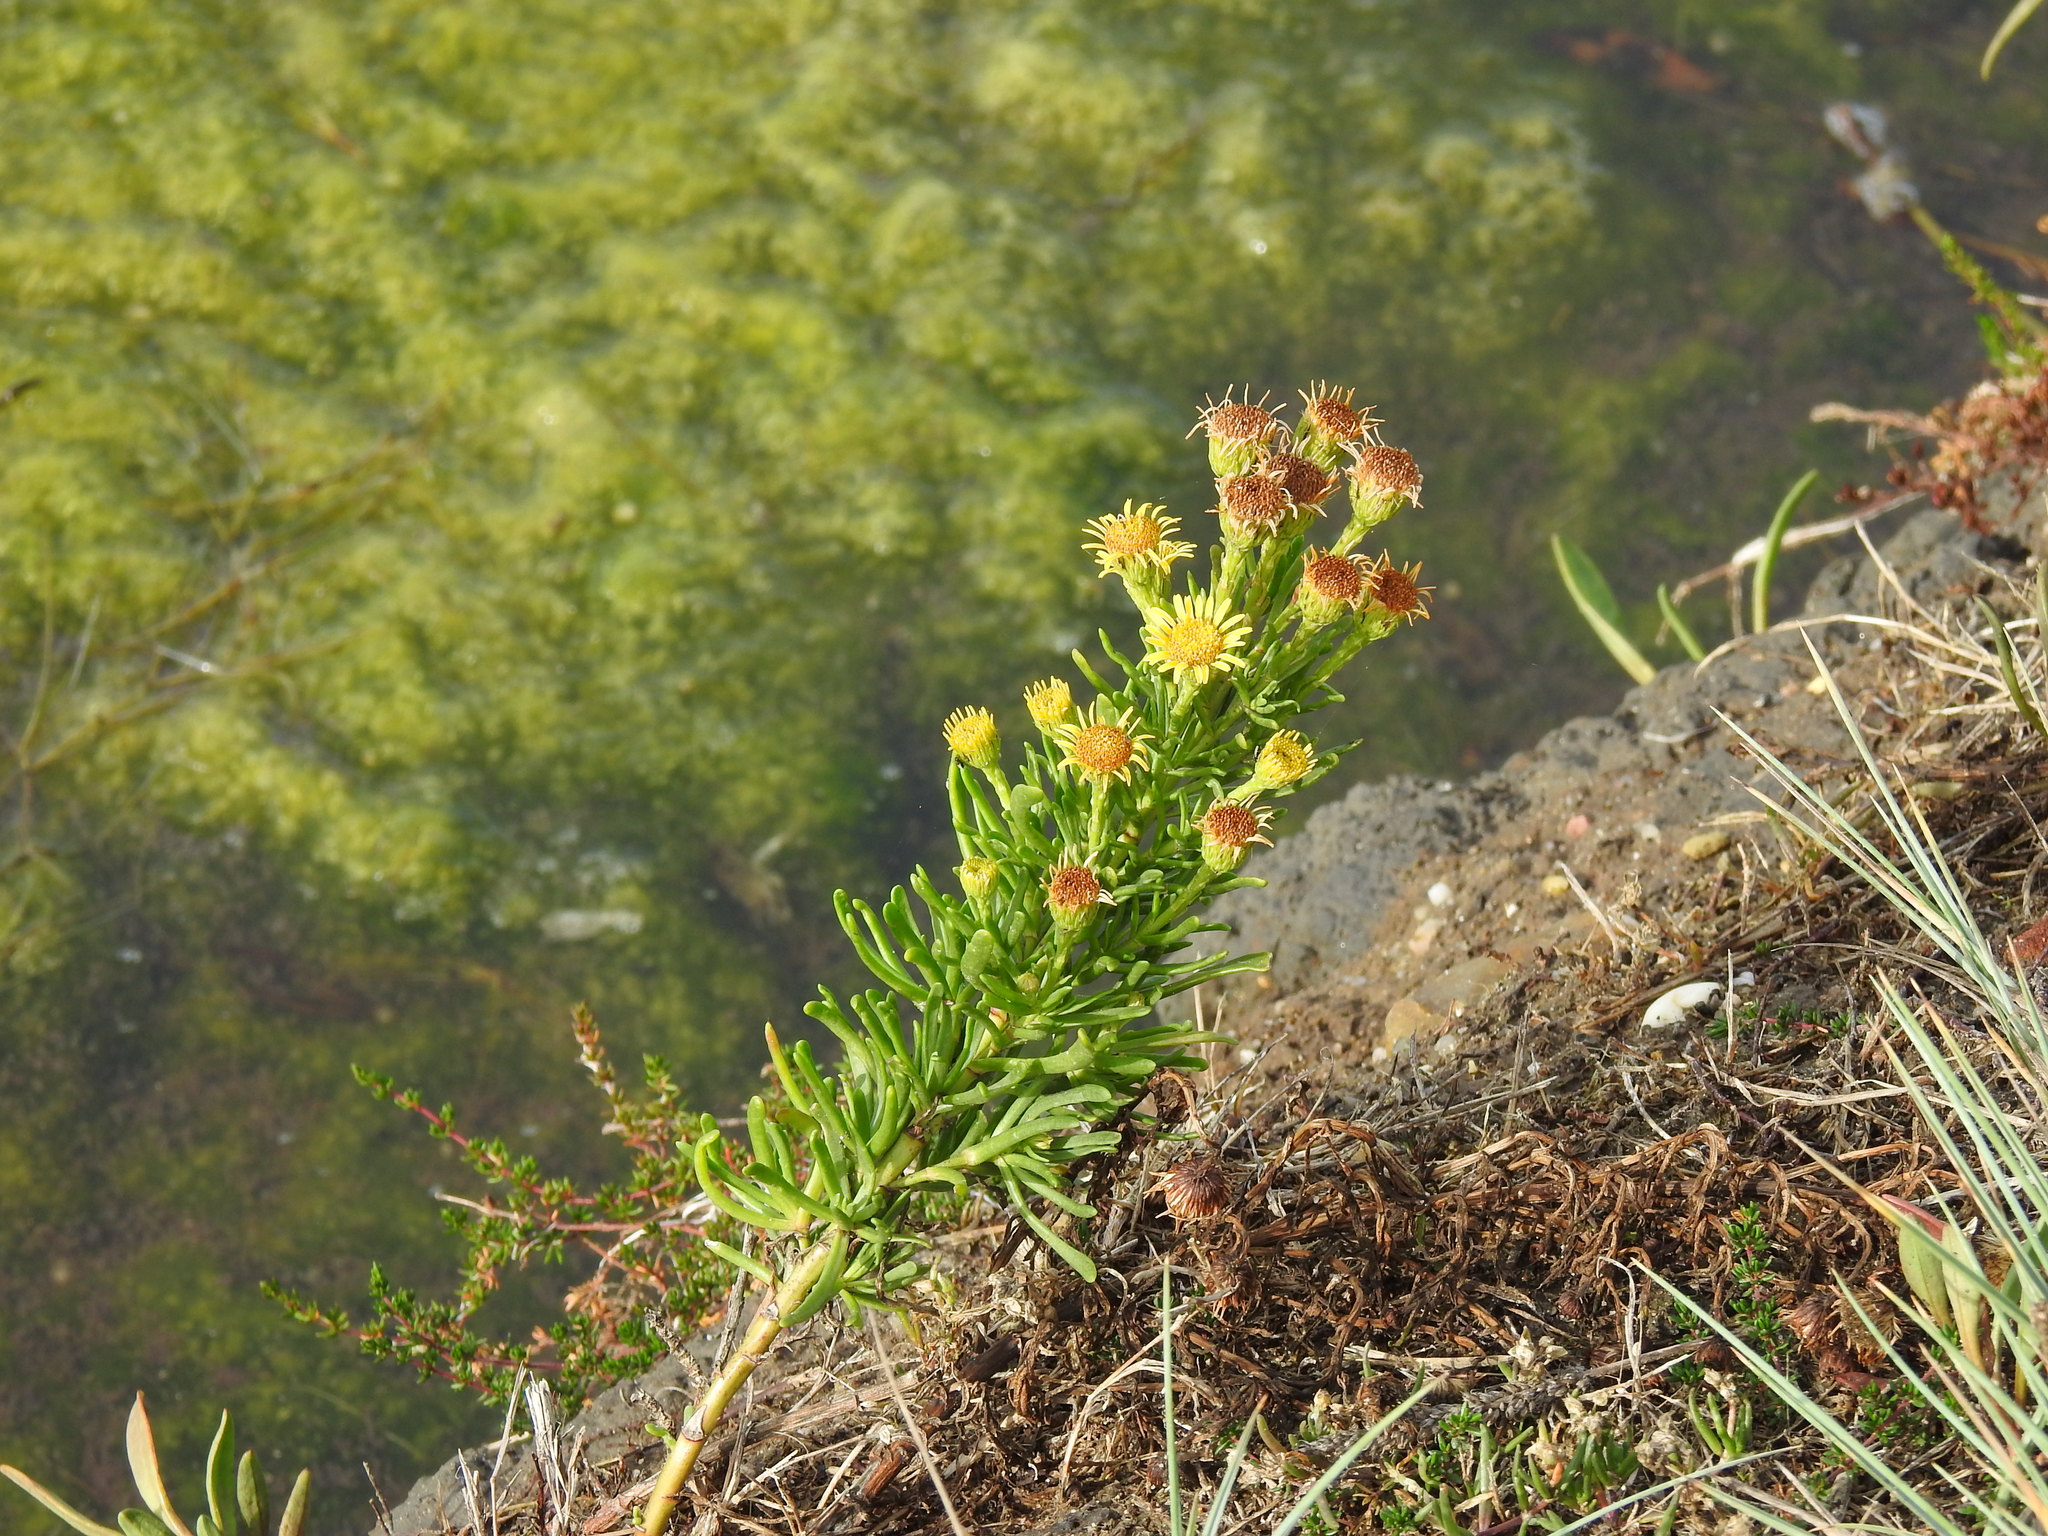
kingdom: Plantae
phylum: Tracheophyta
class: Magnoliopsida
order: Asterales
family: Asteraceae
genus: Limbarda
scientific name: Limbarda crithmoides
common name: Golden samphire
